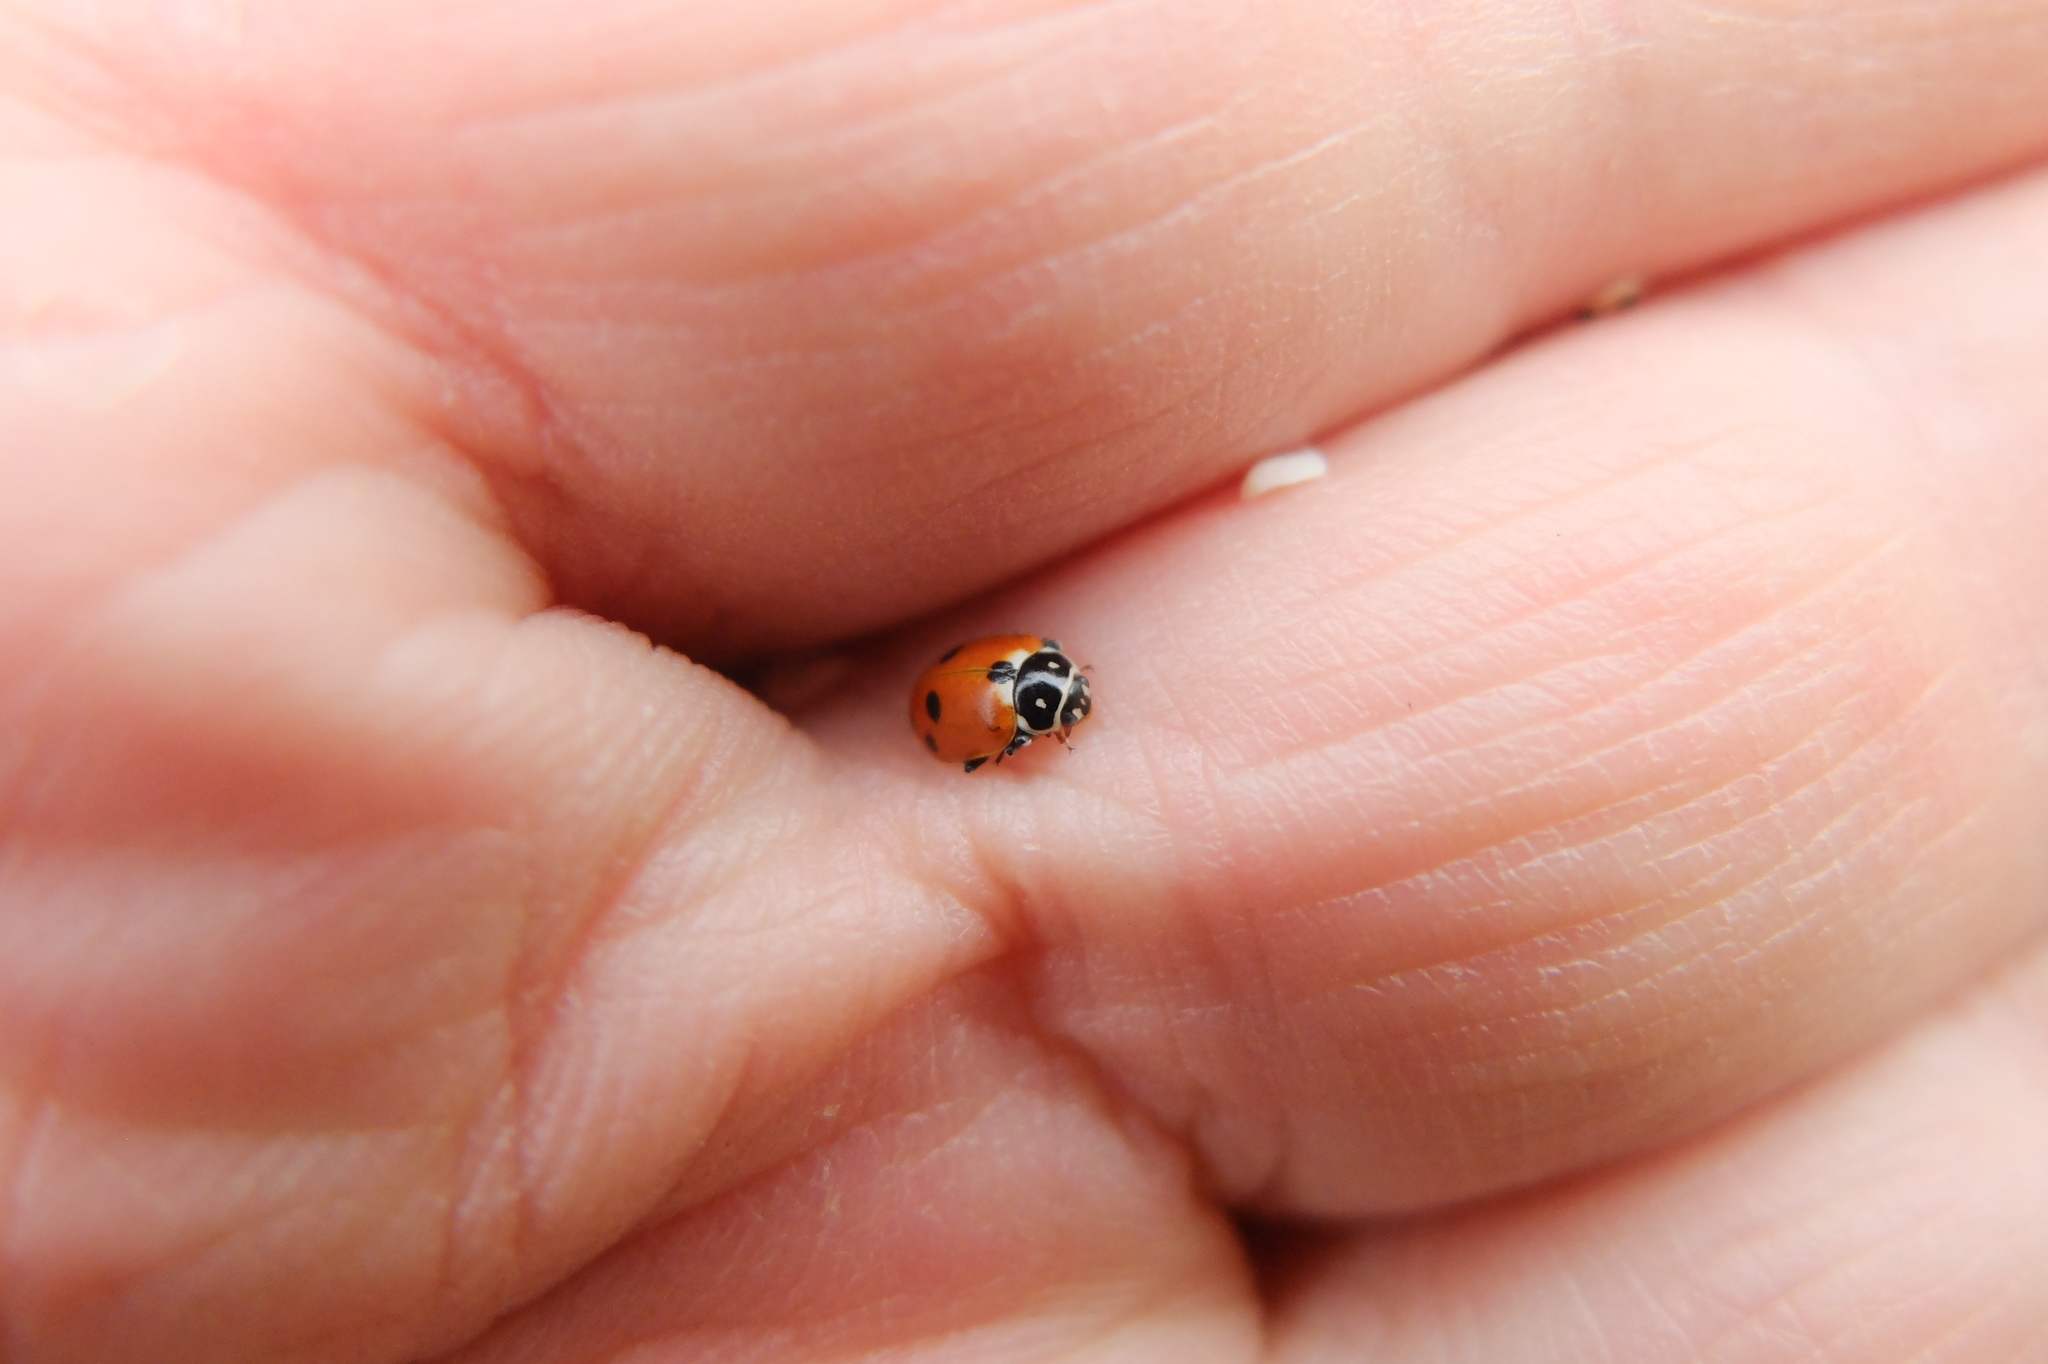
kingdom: Animalia
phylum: Arthropoda
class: Insecta
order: Coleoptera
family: Coccinellidae
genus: Hippodamia
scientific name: Hippodamia variegata
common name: Ladybird beetle
